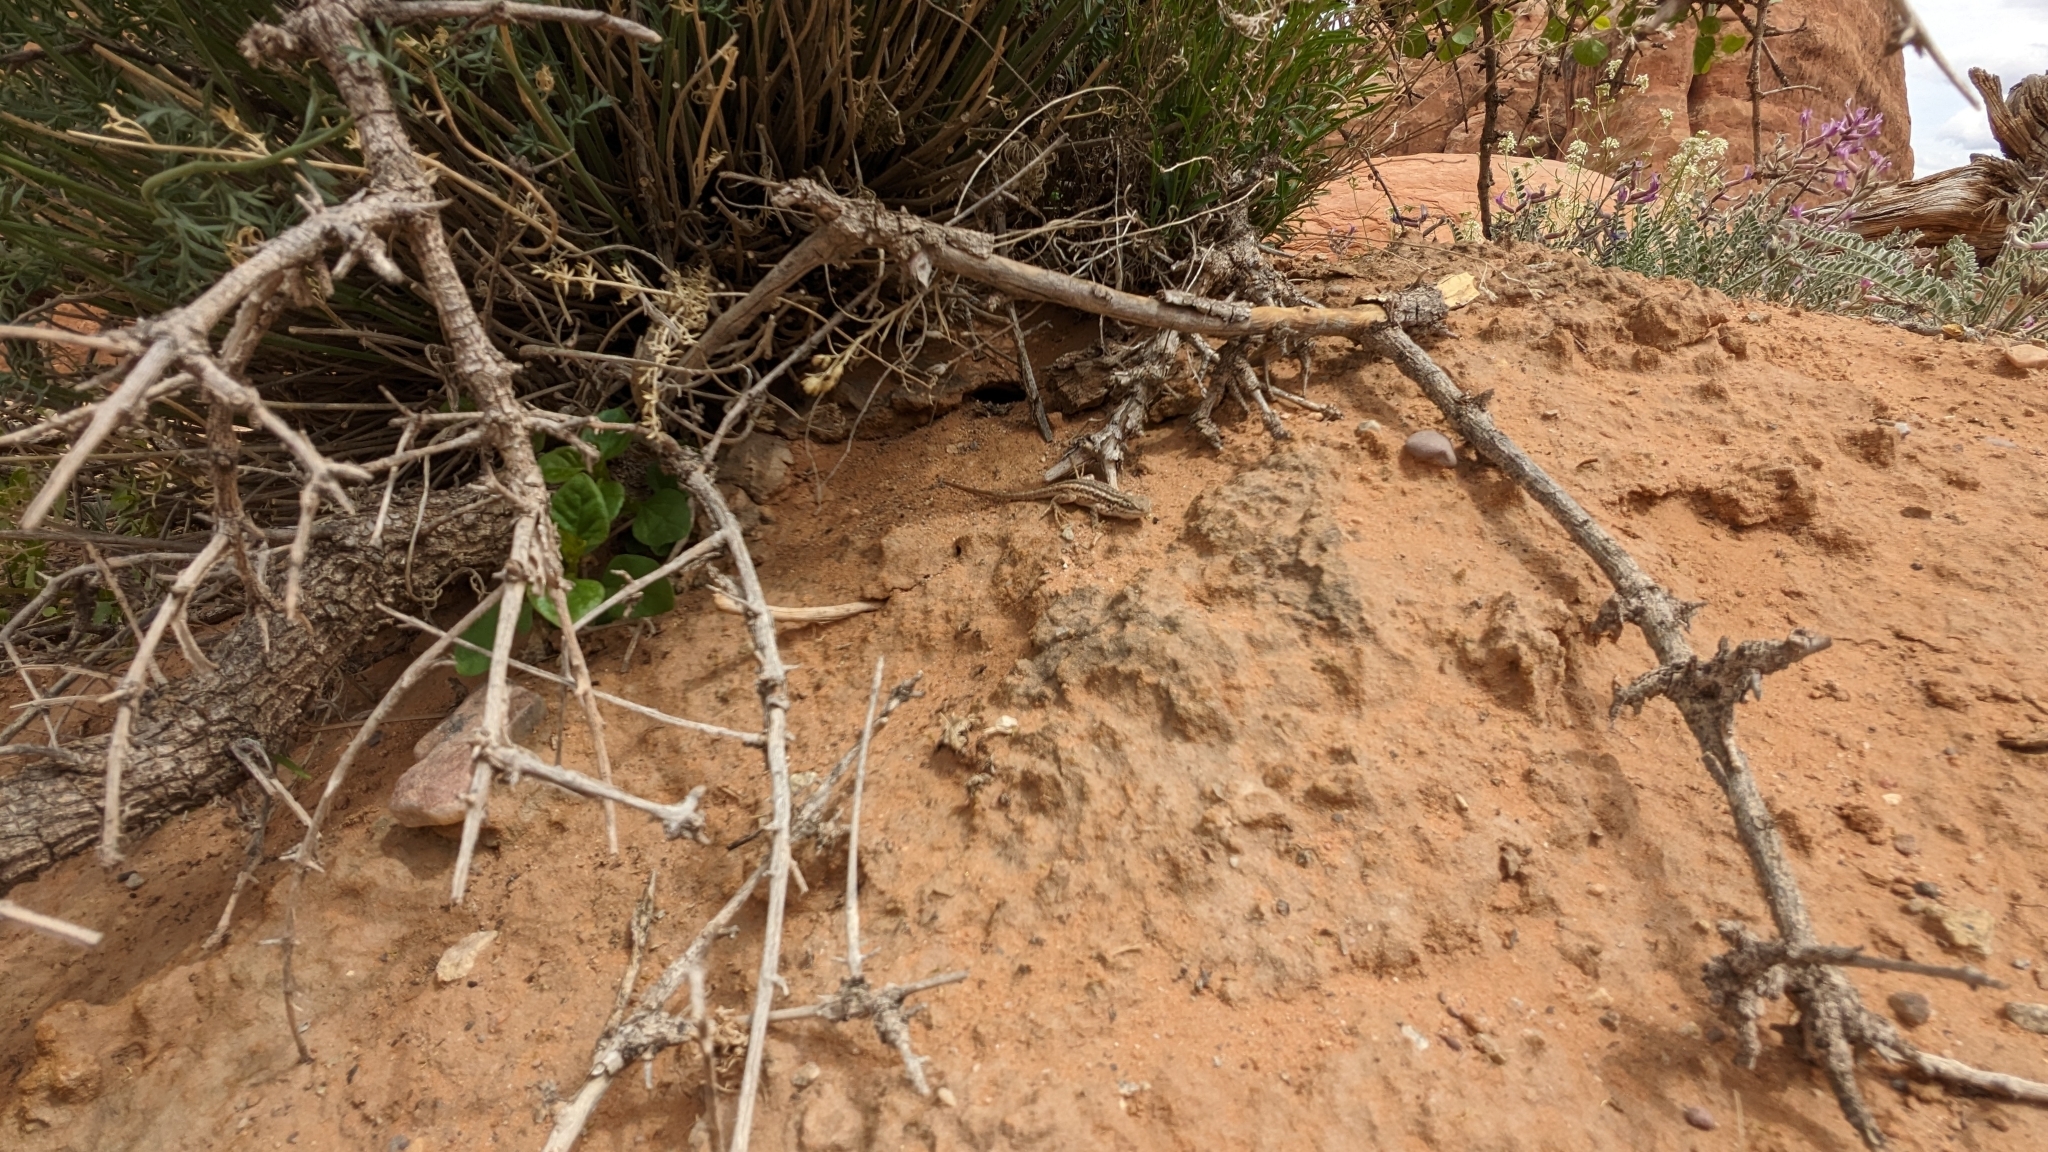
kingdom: Animalia
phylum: Chordata
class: Squamata
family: Phrynosomatidae
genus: Sceloporus
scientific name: Sceloporus graciosus
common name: Sagebrush lizard
